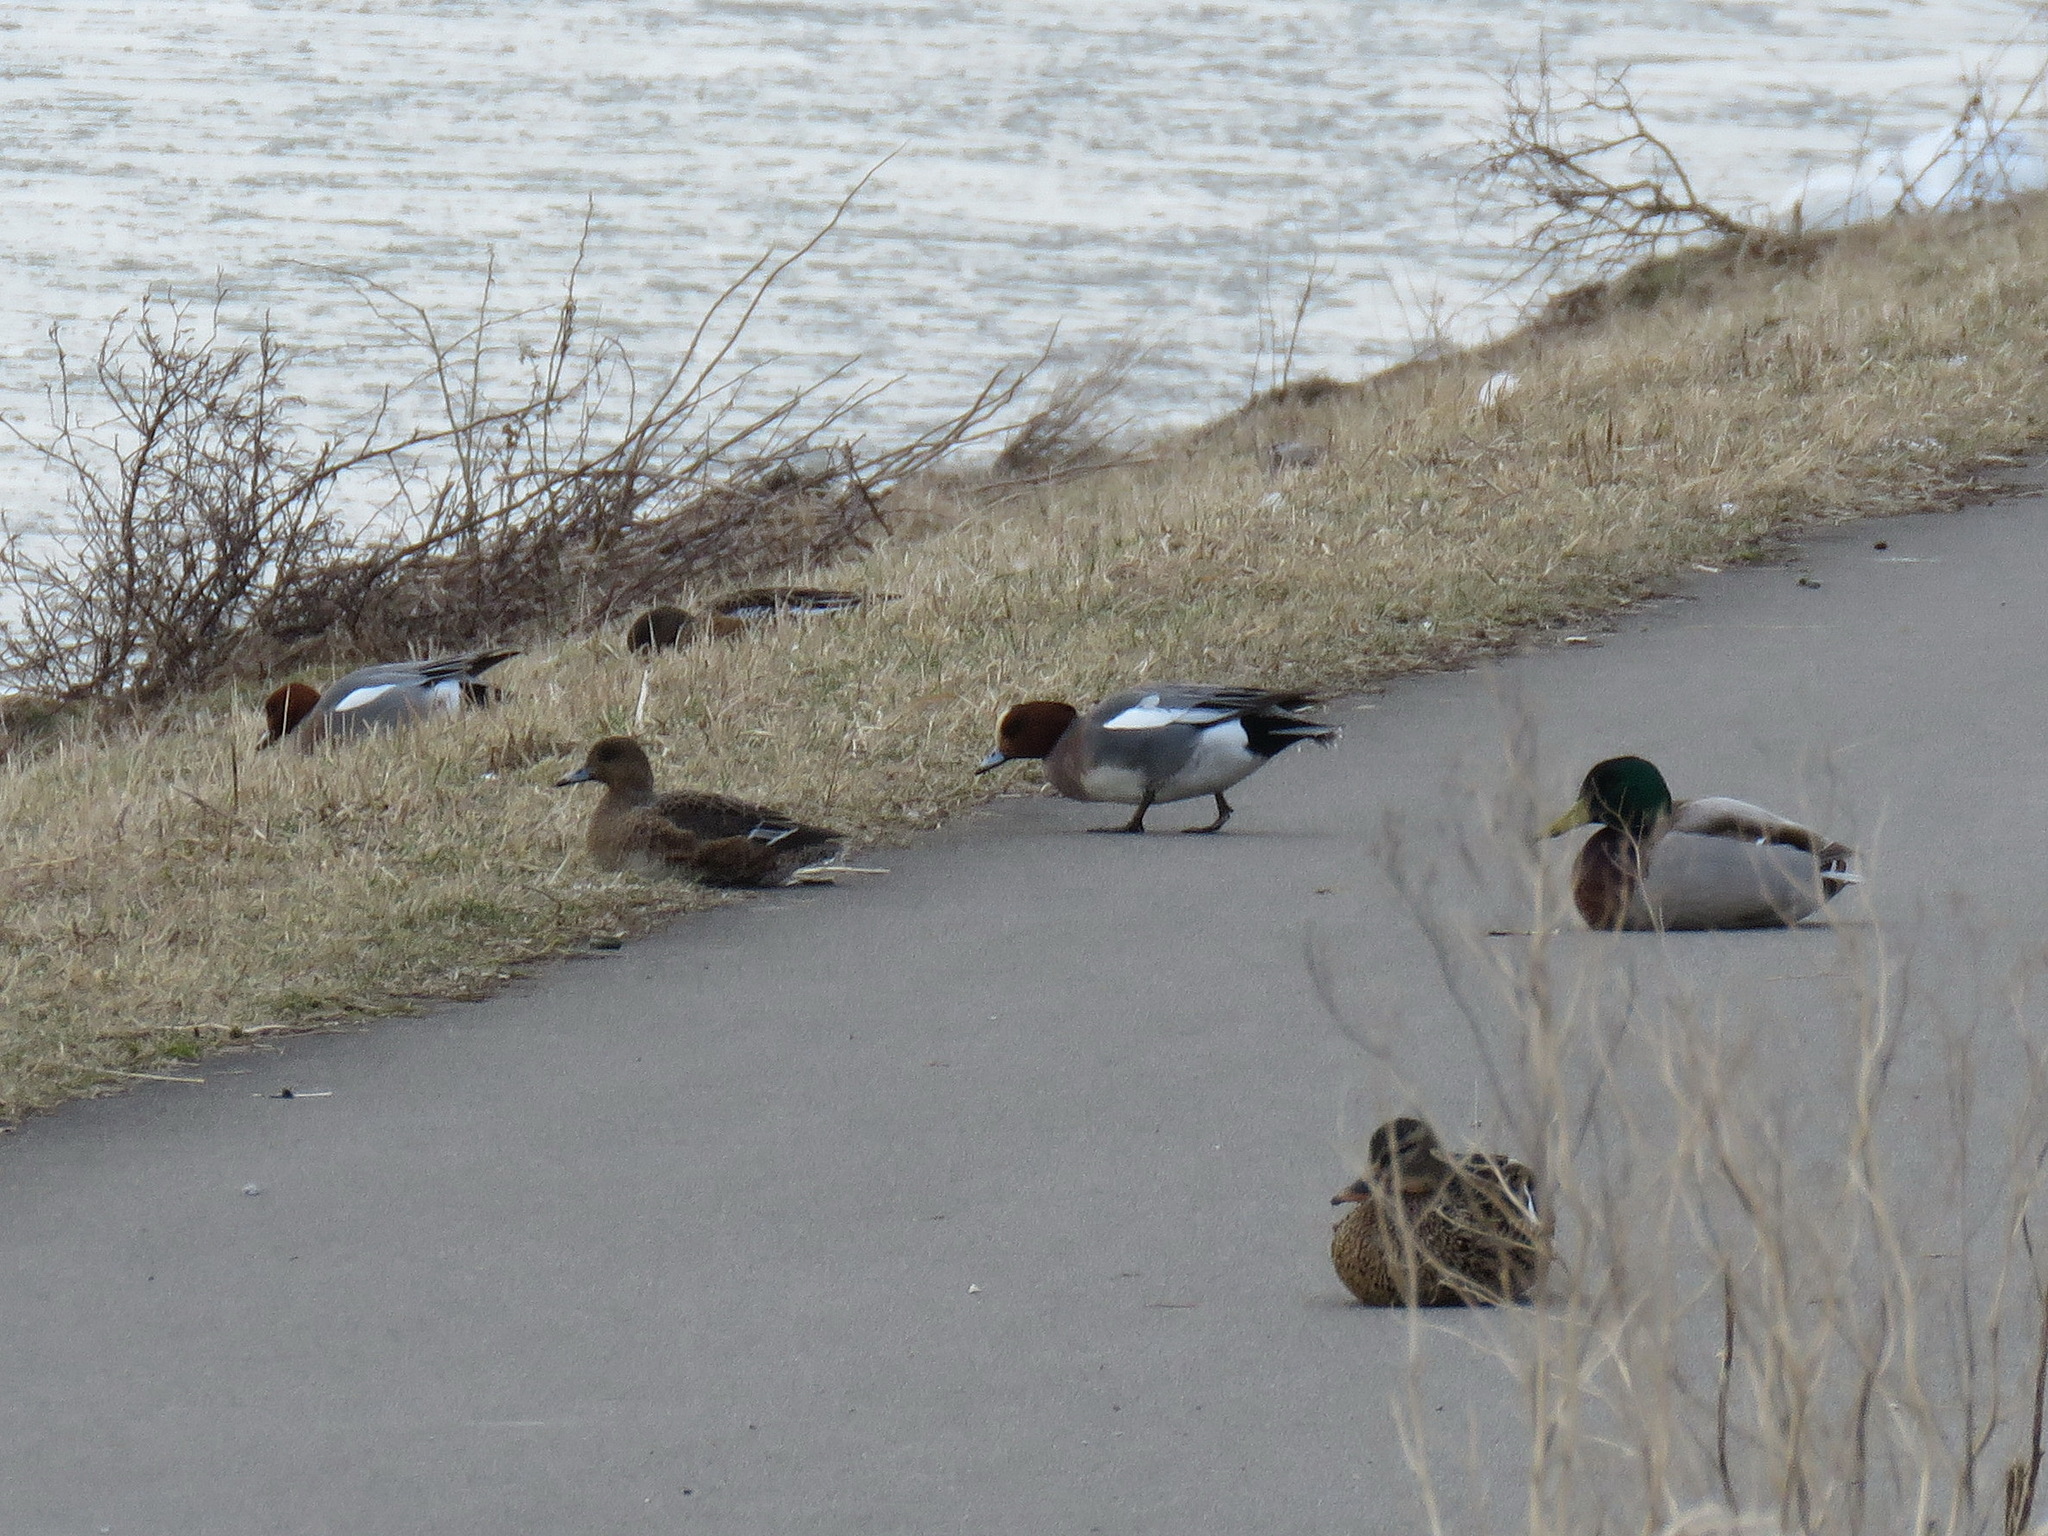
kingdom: Animalia
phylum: Chordata
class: Aves
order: Anseriformes
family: Anatidae
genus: Mareca
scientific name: Mareca penelope
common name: Eurasian wigeon
